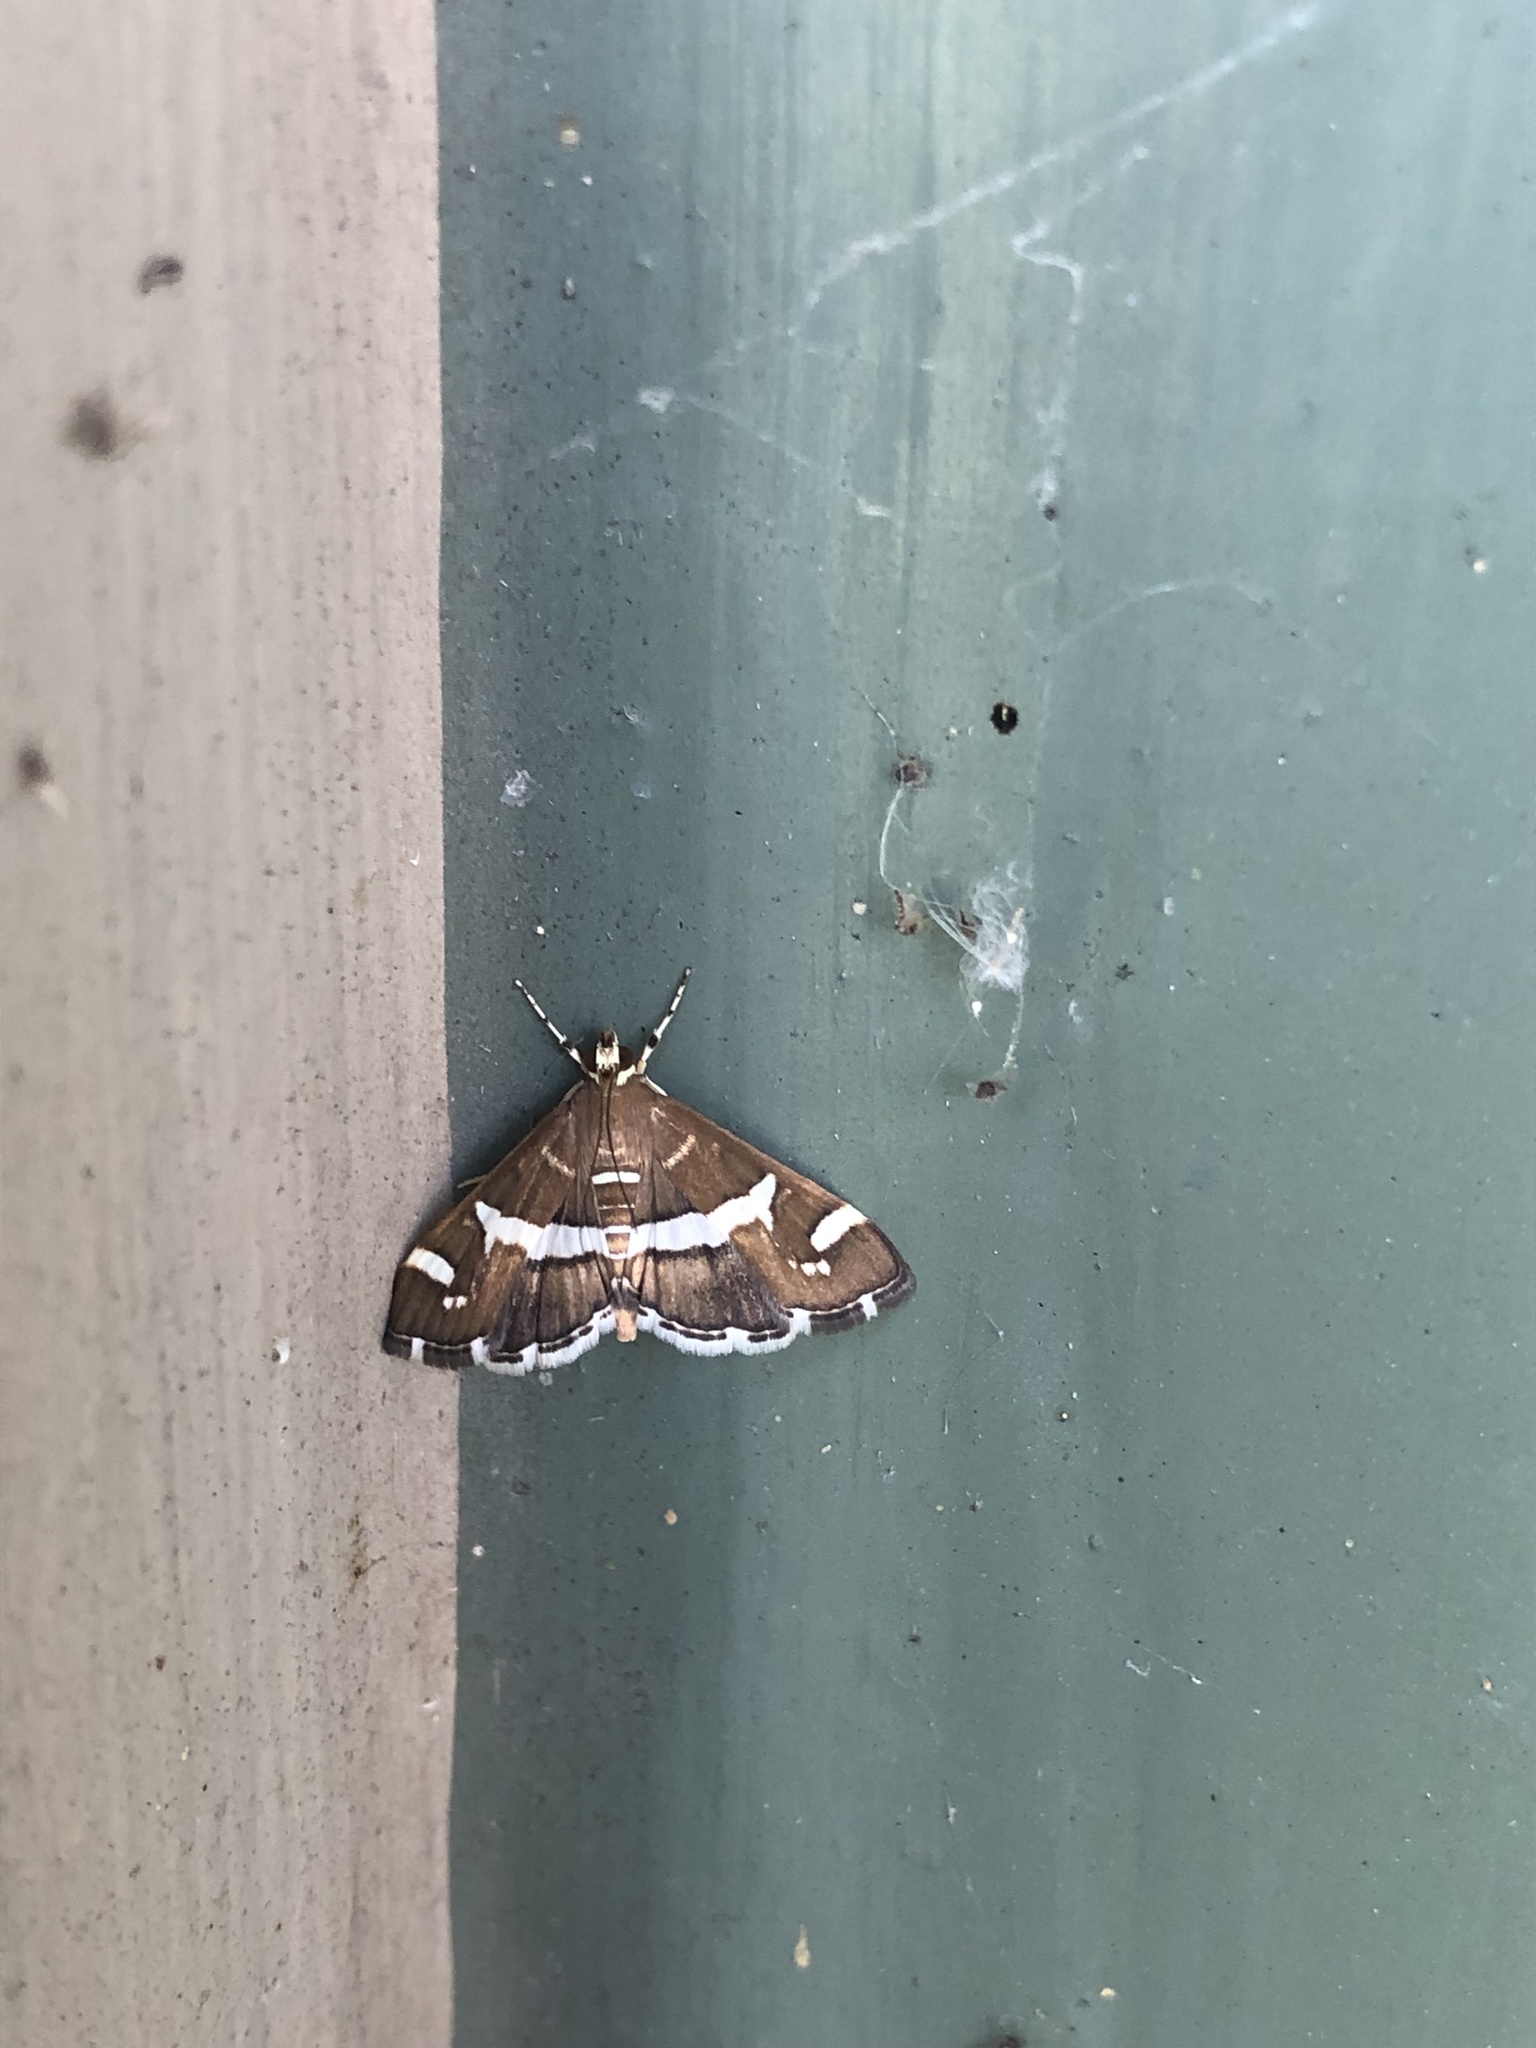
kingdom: Animalia
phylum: Arthropoda
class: Insecta
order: Lepidoptera
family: Crambidae
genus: Spoladea
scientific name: Spoladea recurvalis
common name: Beet webworm moth
